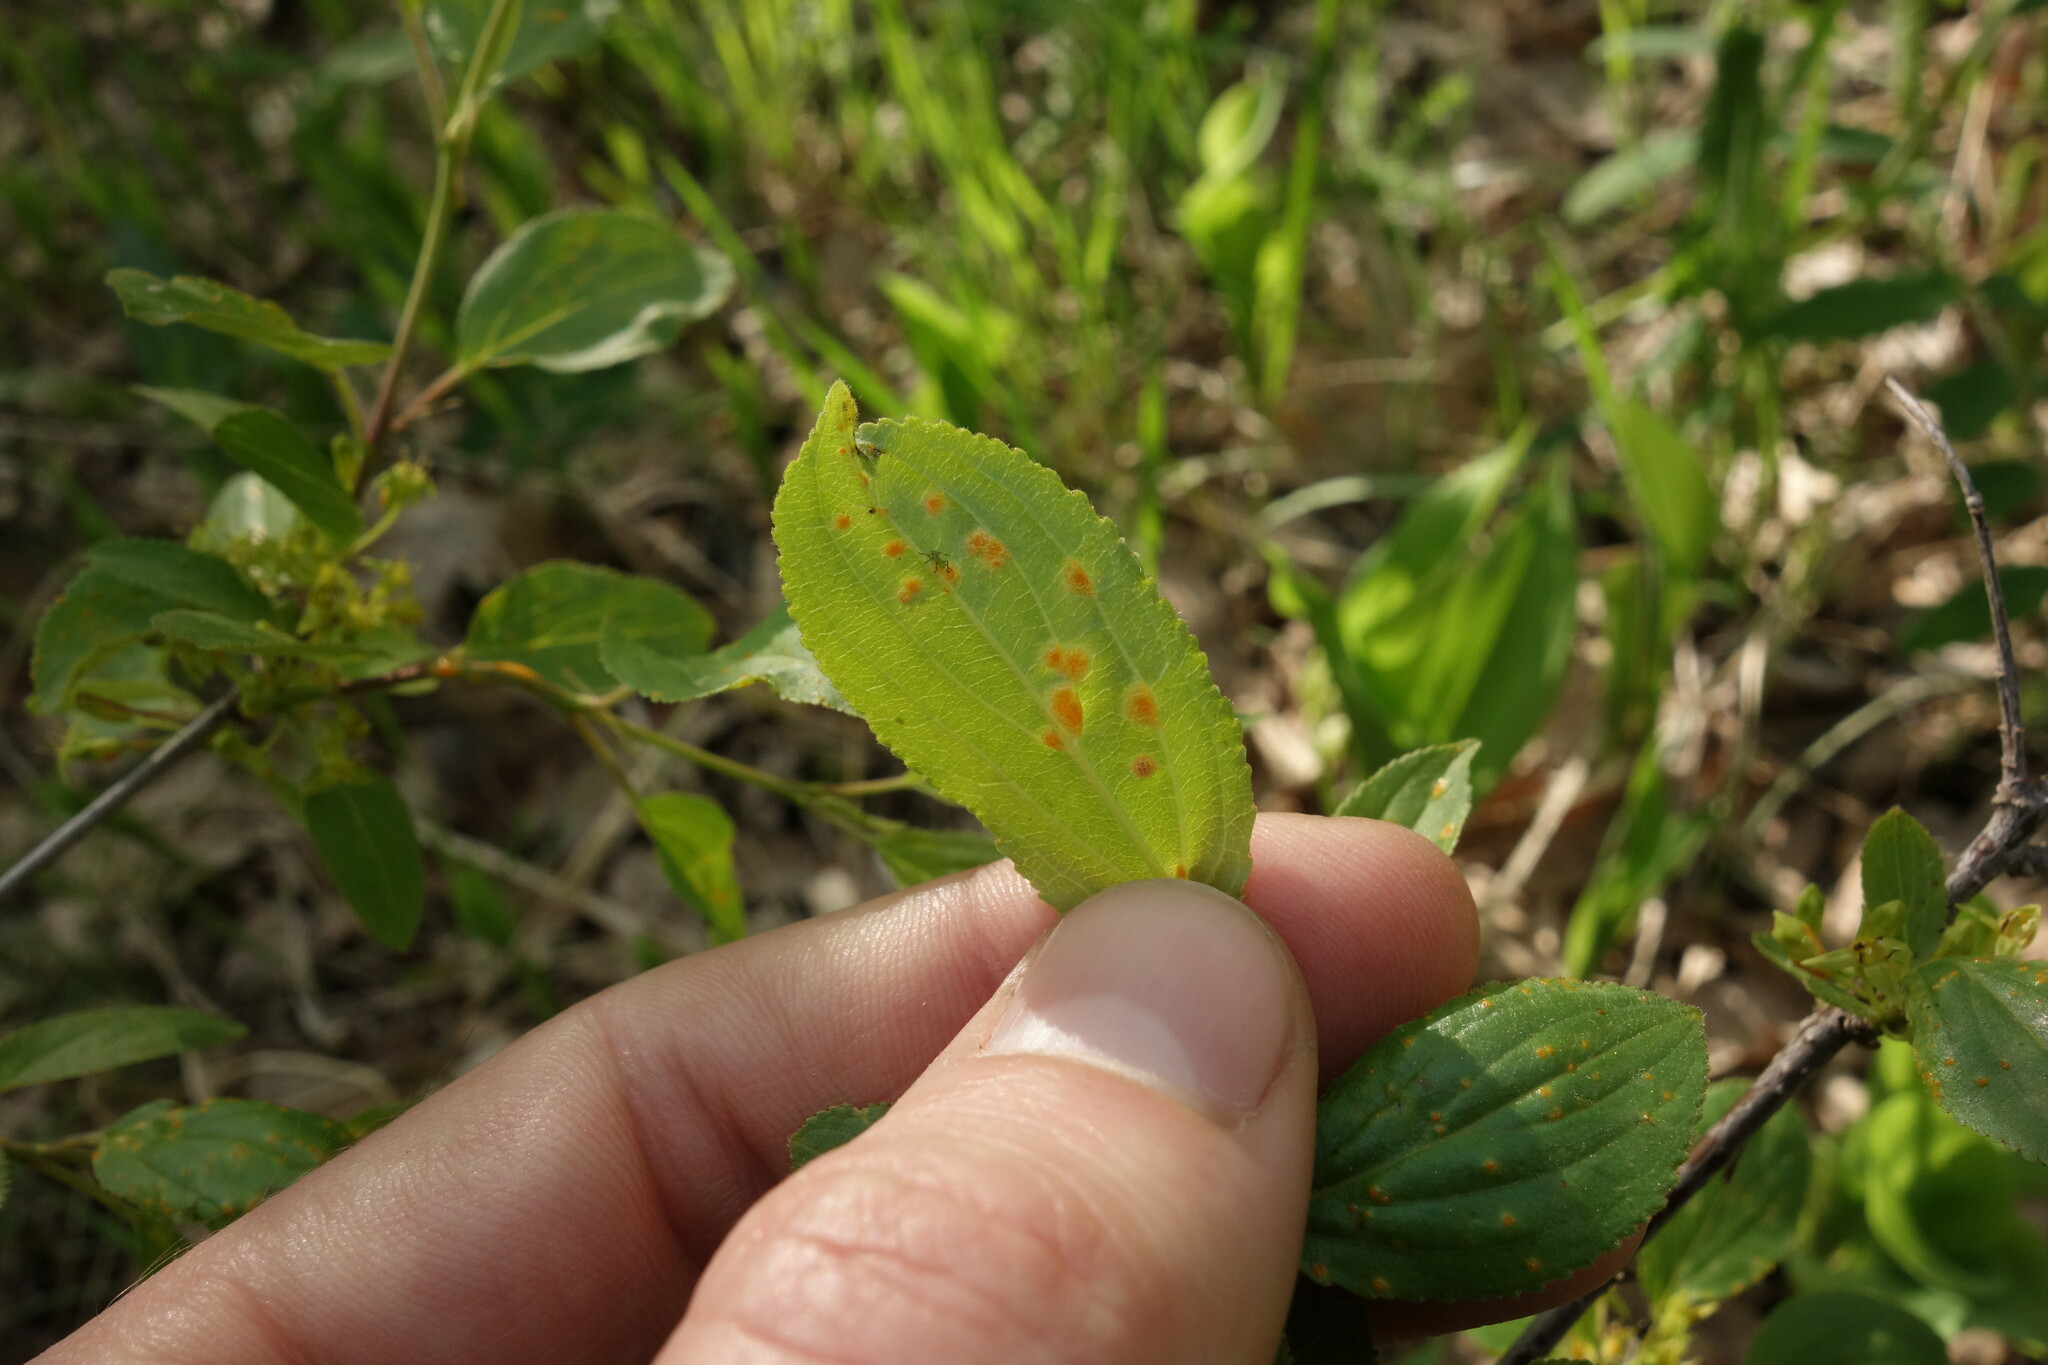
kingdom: Fungi
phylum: Basidiomycota
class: Pucciniomycetes
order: Pucciniales
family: Pucciniaceae
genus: Puccinia
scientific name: Puccinia coronata
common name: Crown rust
